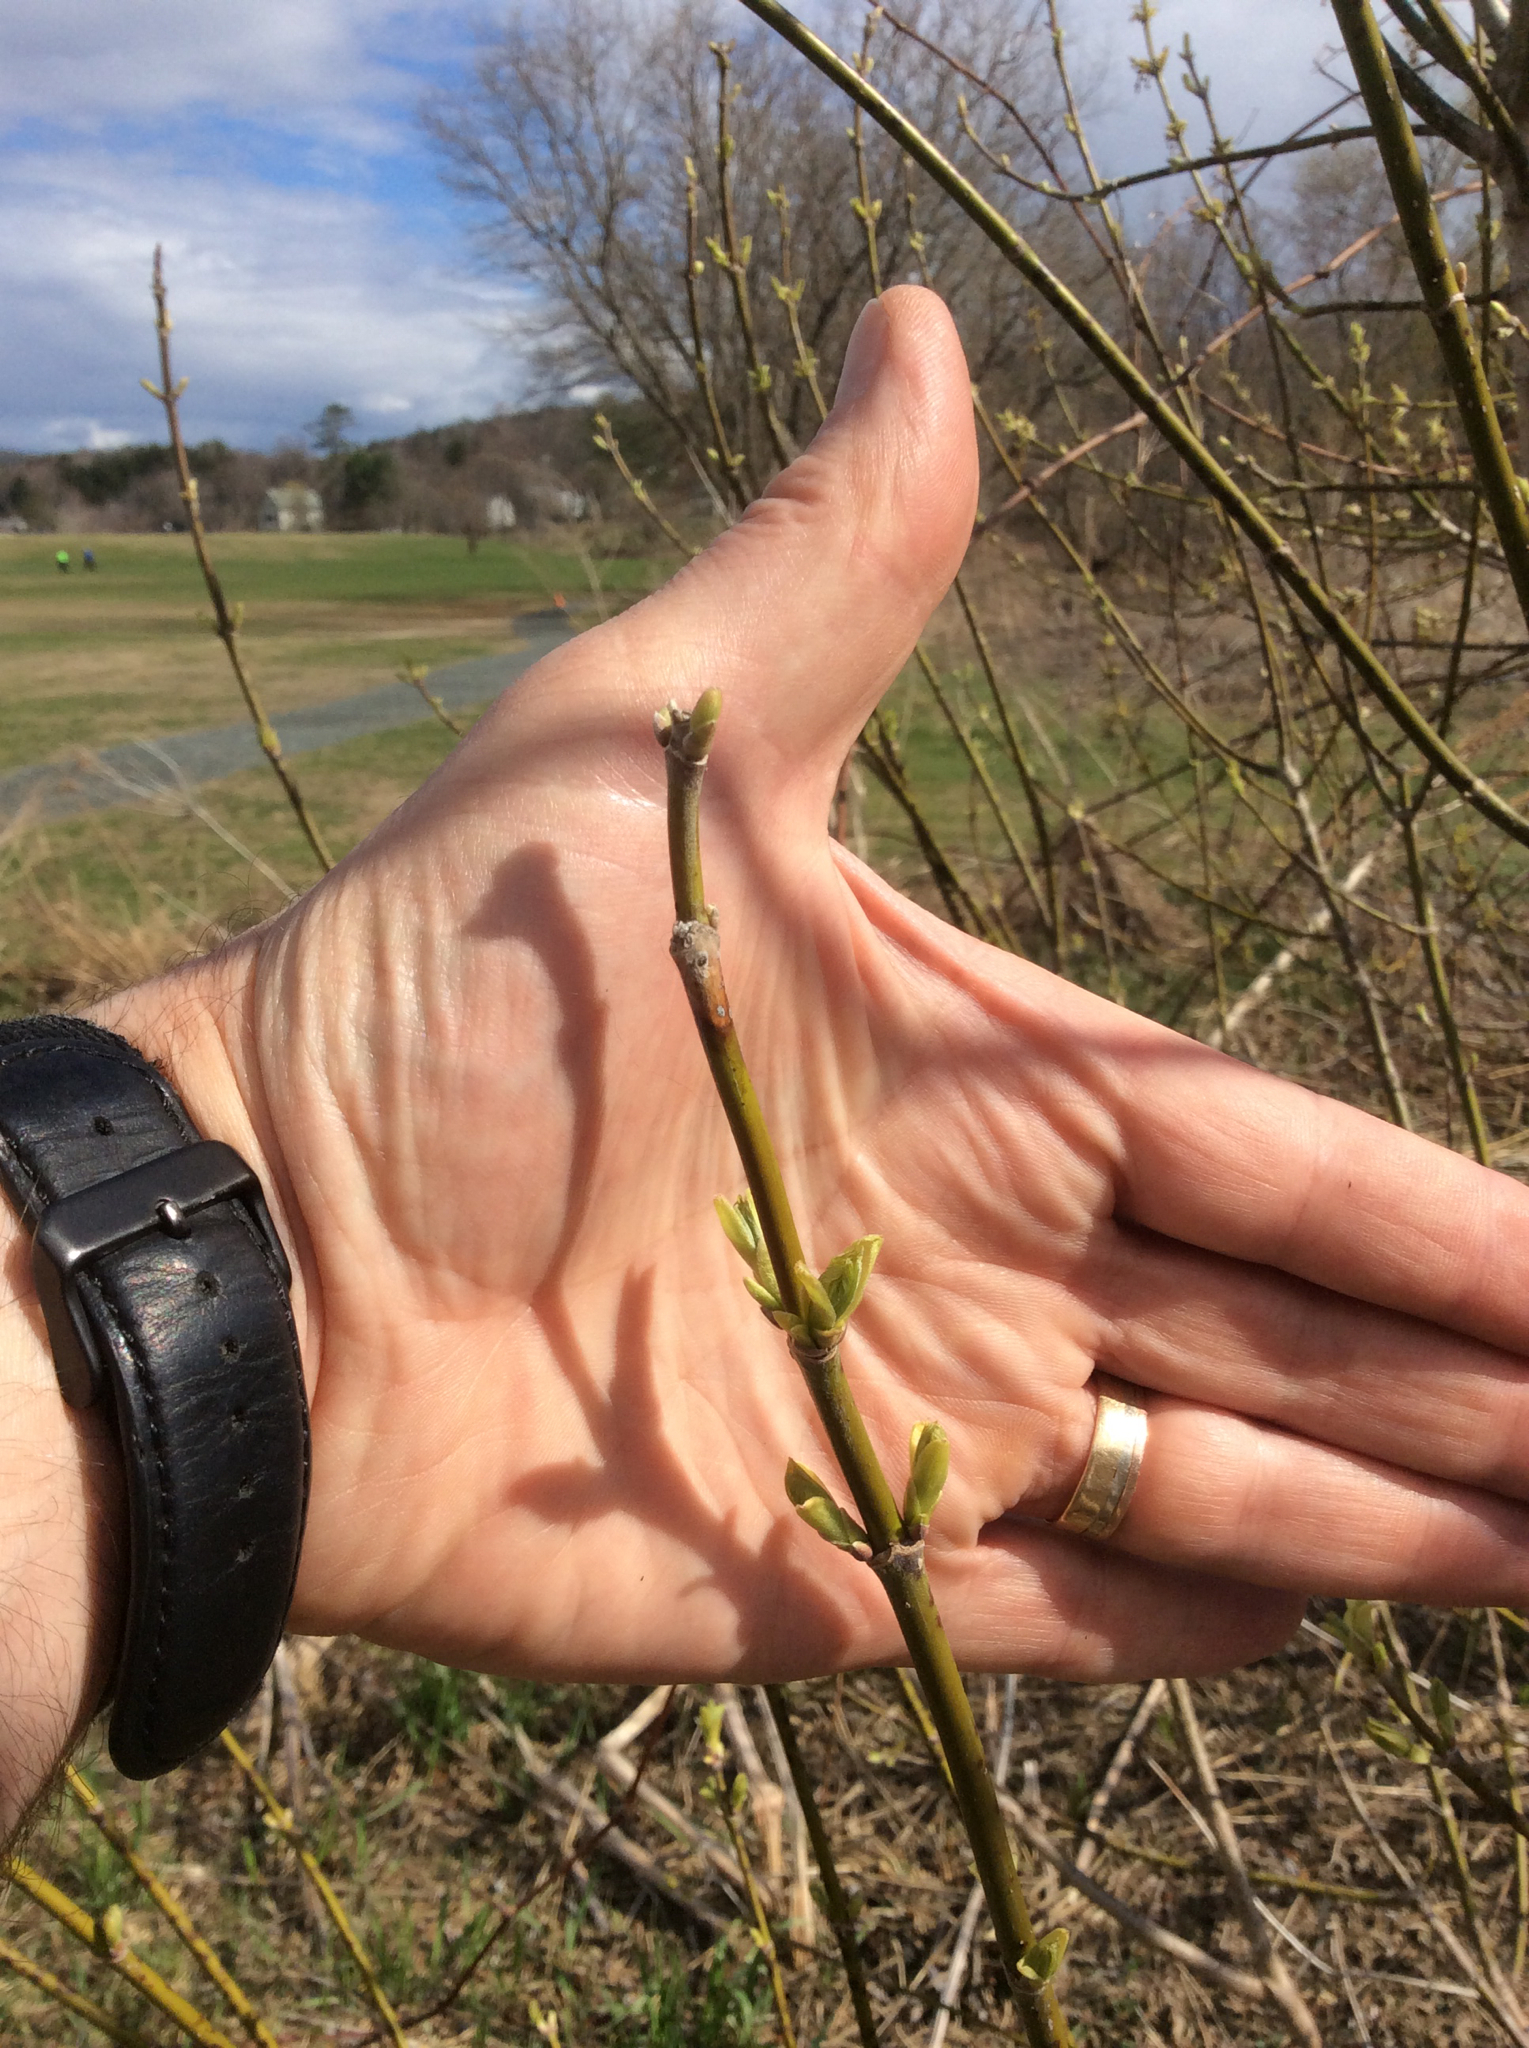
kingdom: Plantae
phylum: Tracheophyta
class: Magnoliopsida
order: Sapindales
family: Sapindaceae
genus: Acer
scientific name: Acer negundo
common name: Ashleaf maple
